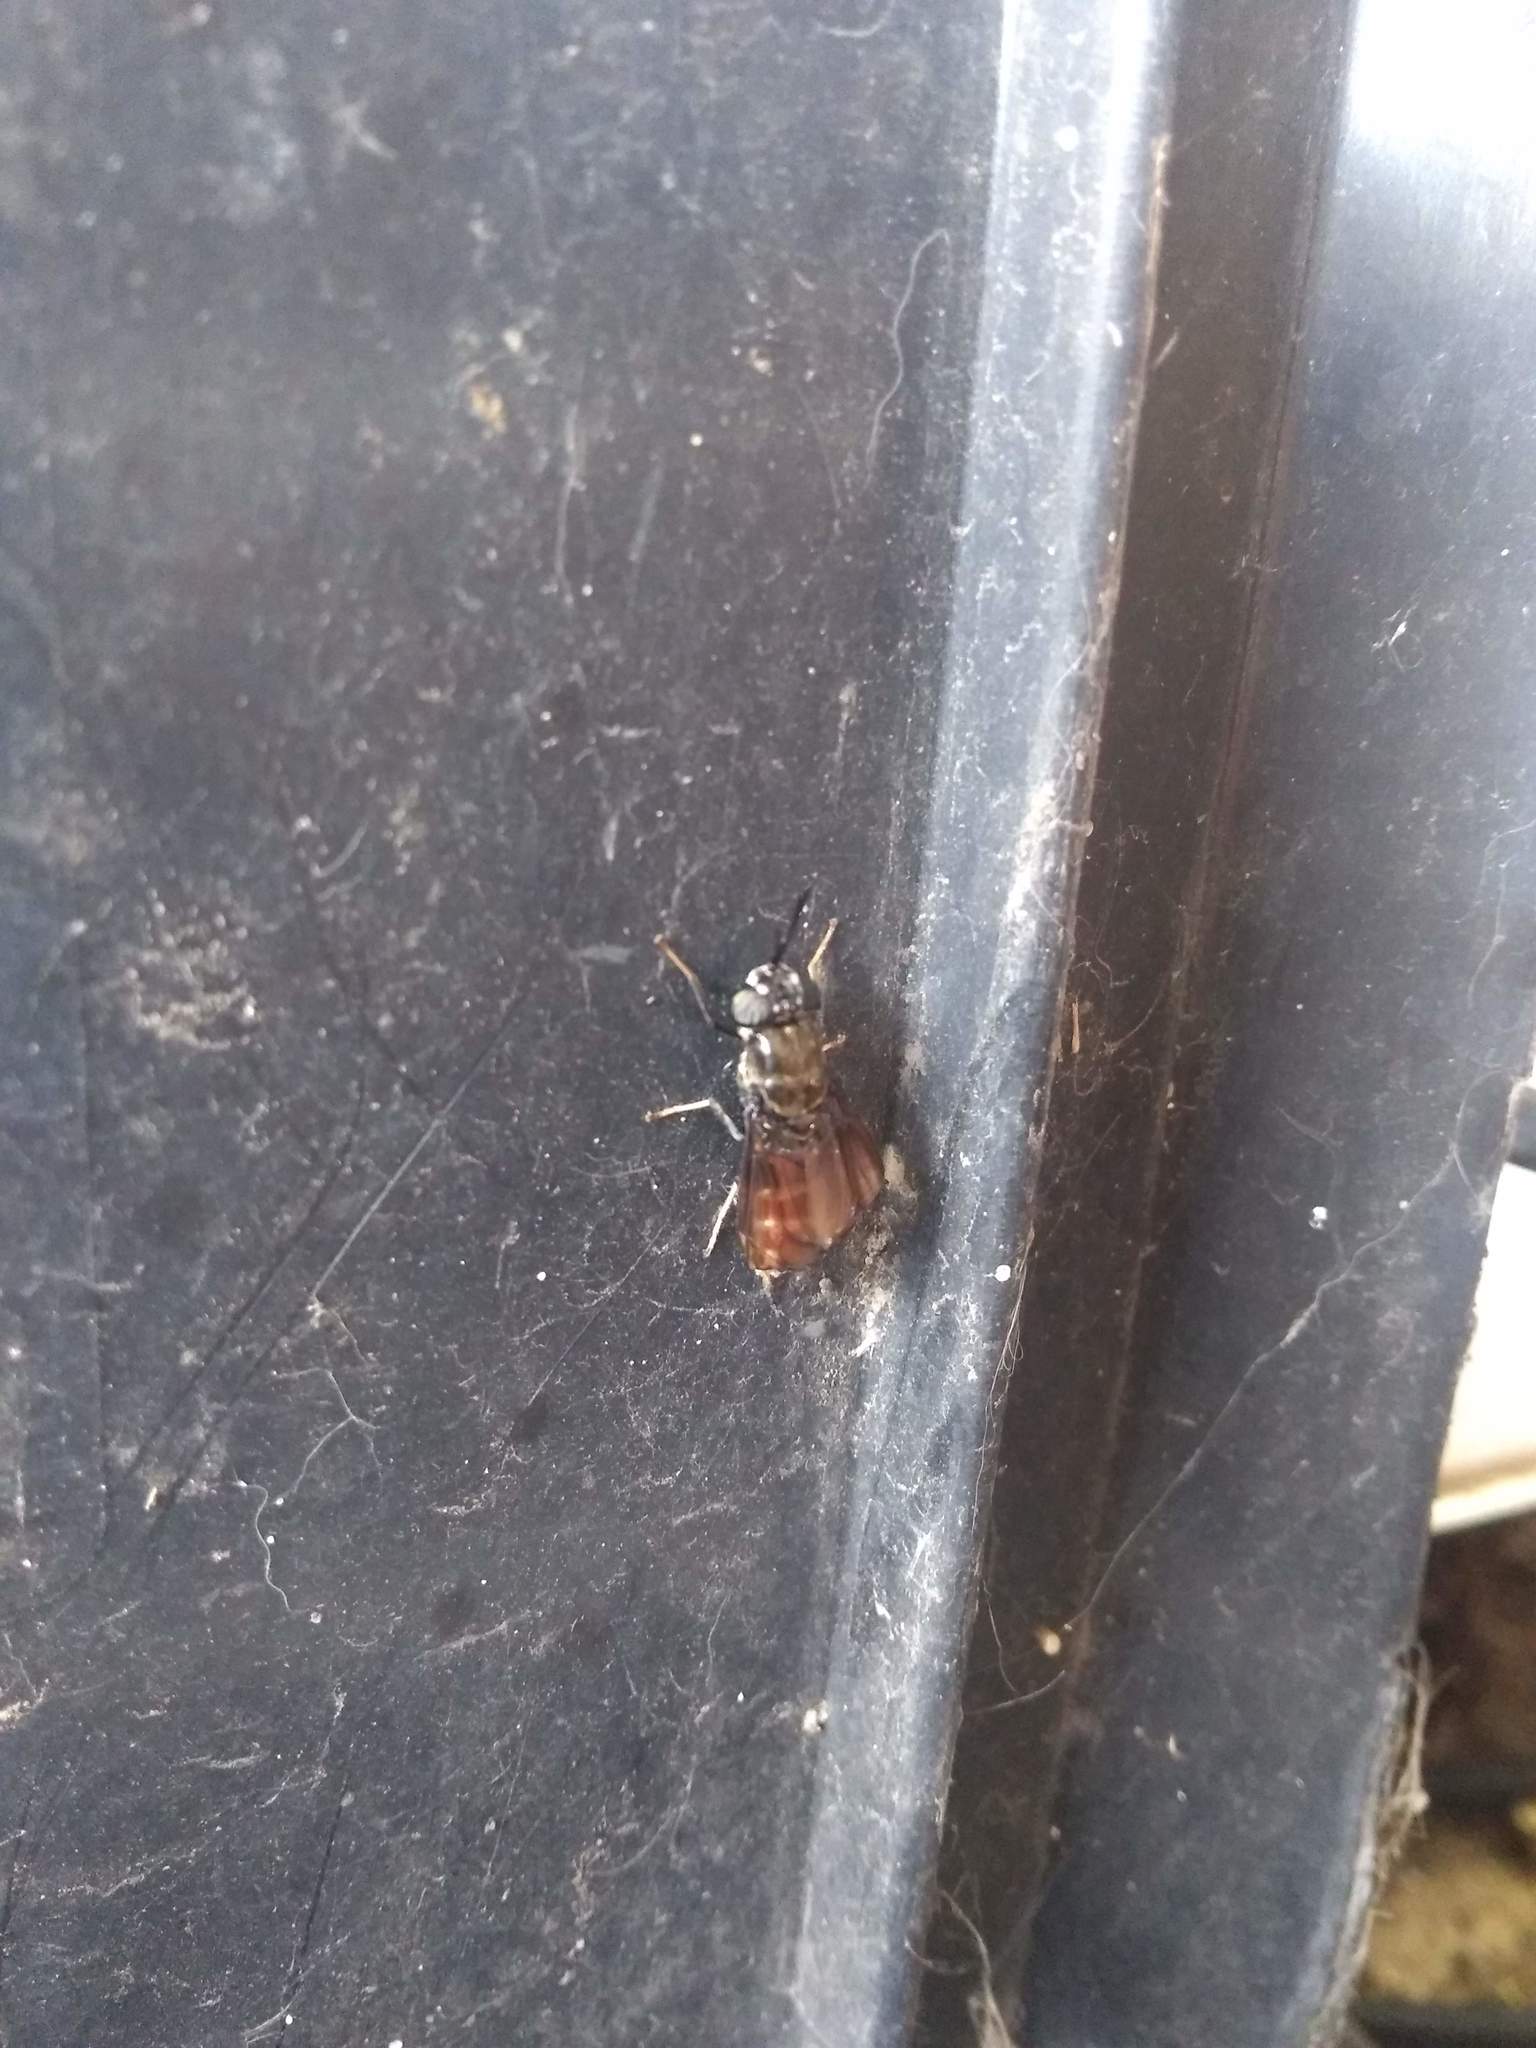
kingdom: Animalia
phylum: Arthropoda
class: Insecta
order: Diptera
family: Stratiomyidae
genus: Hermetia
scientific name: Hermetia illucens
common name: Black soldier fly
